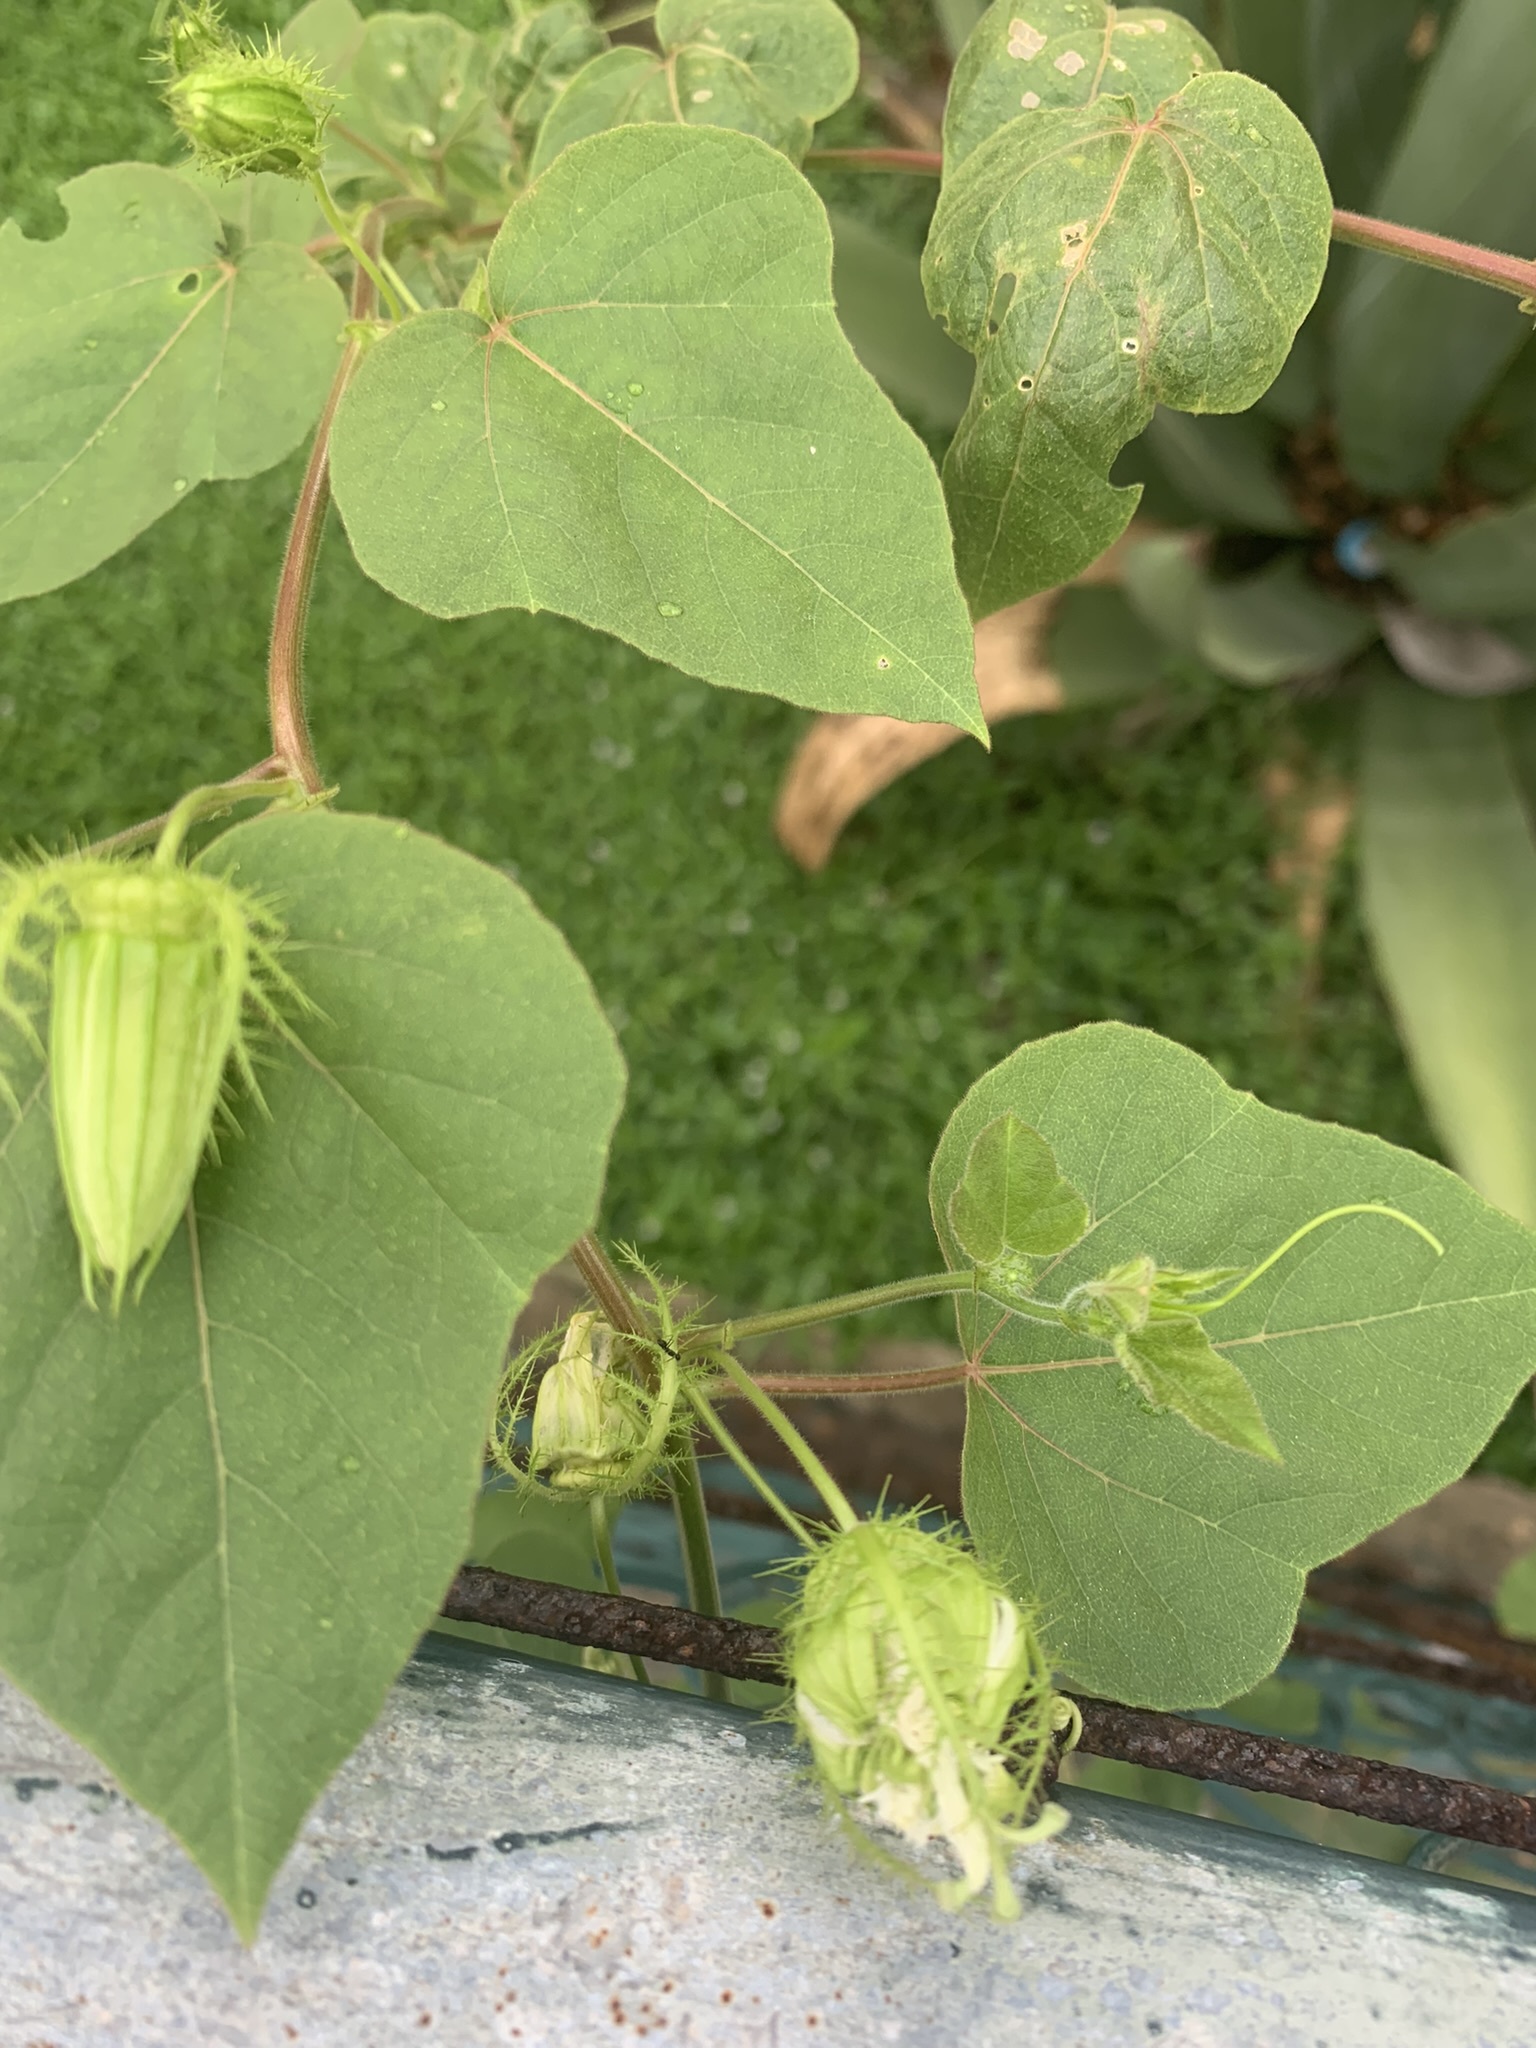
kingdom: Plantae
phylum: Tracheophyta
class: Magnoliopsida
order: Malpighiales
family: Passifloraceae
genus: Passiflora
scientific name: Passiflora foetida
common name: Fetid passionflower
